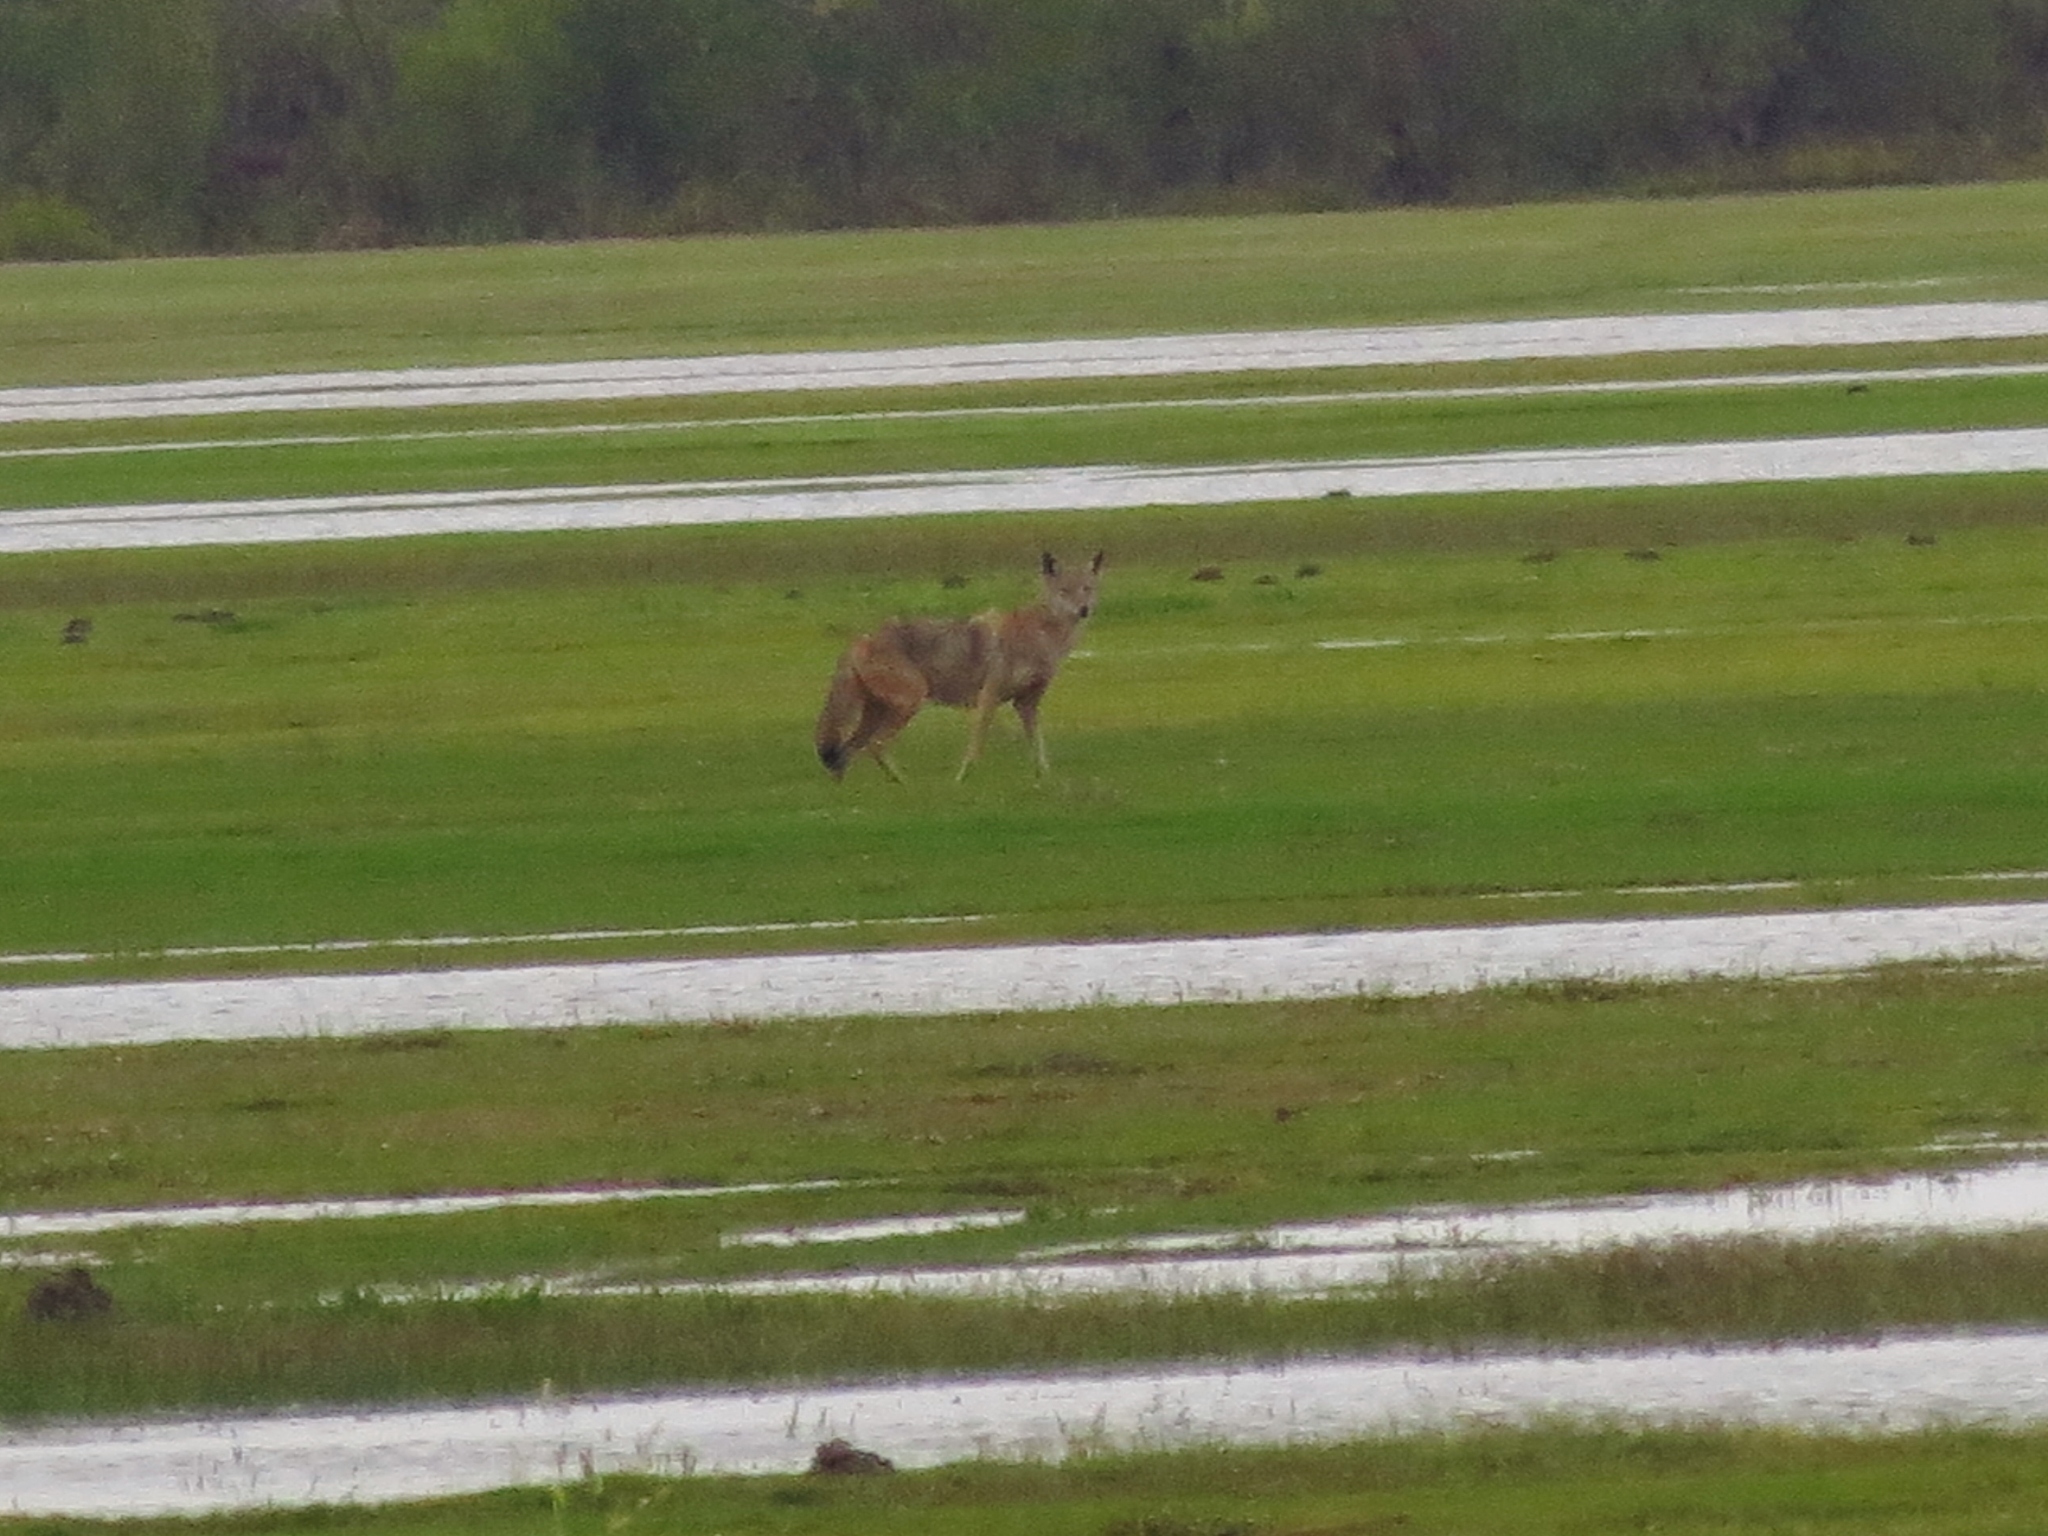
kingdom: Animalia
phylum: Chordata
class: Mammalia
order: Carnivora
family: Canidae
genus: Canis
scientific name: Canis latrans
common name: Coyote
